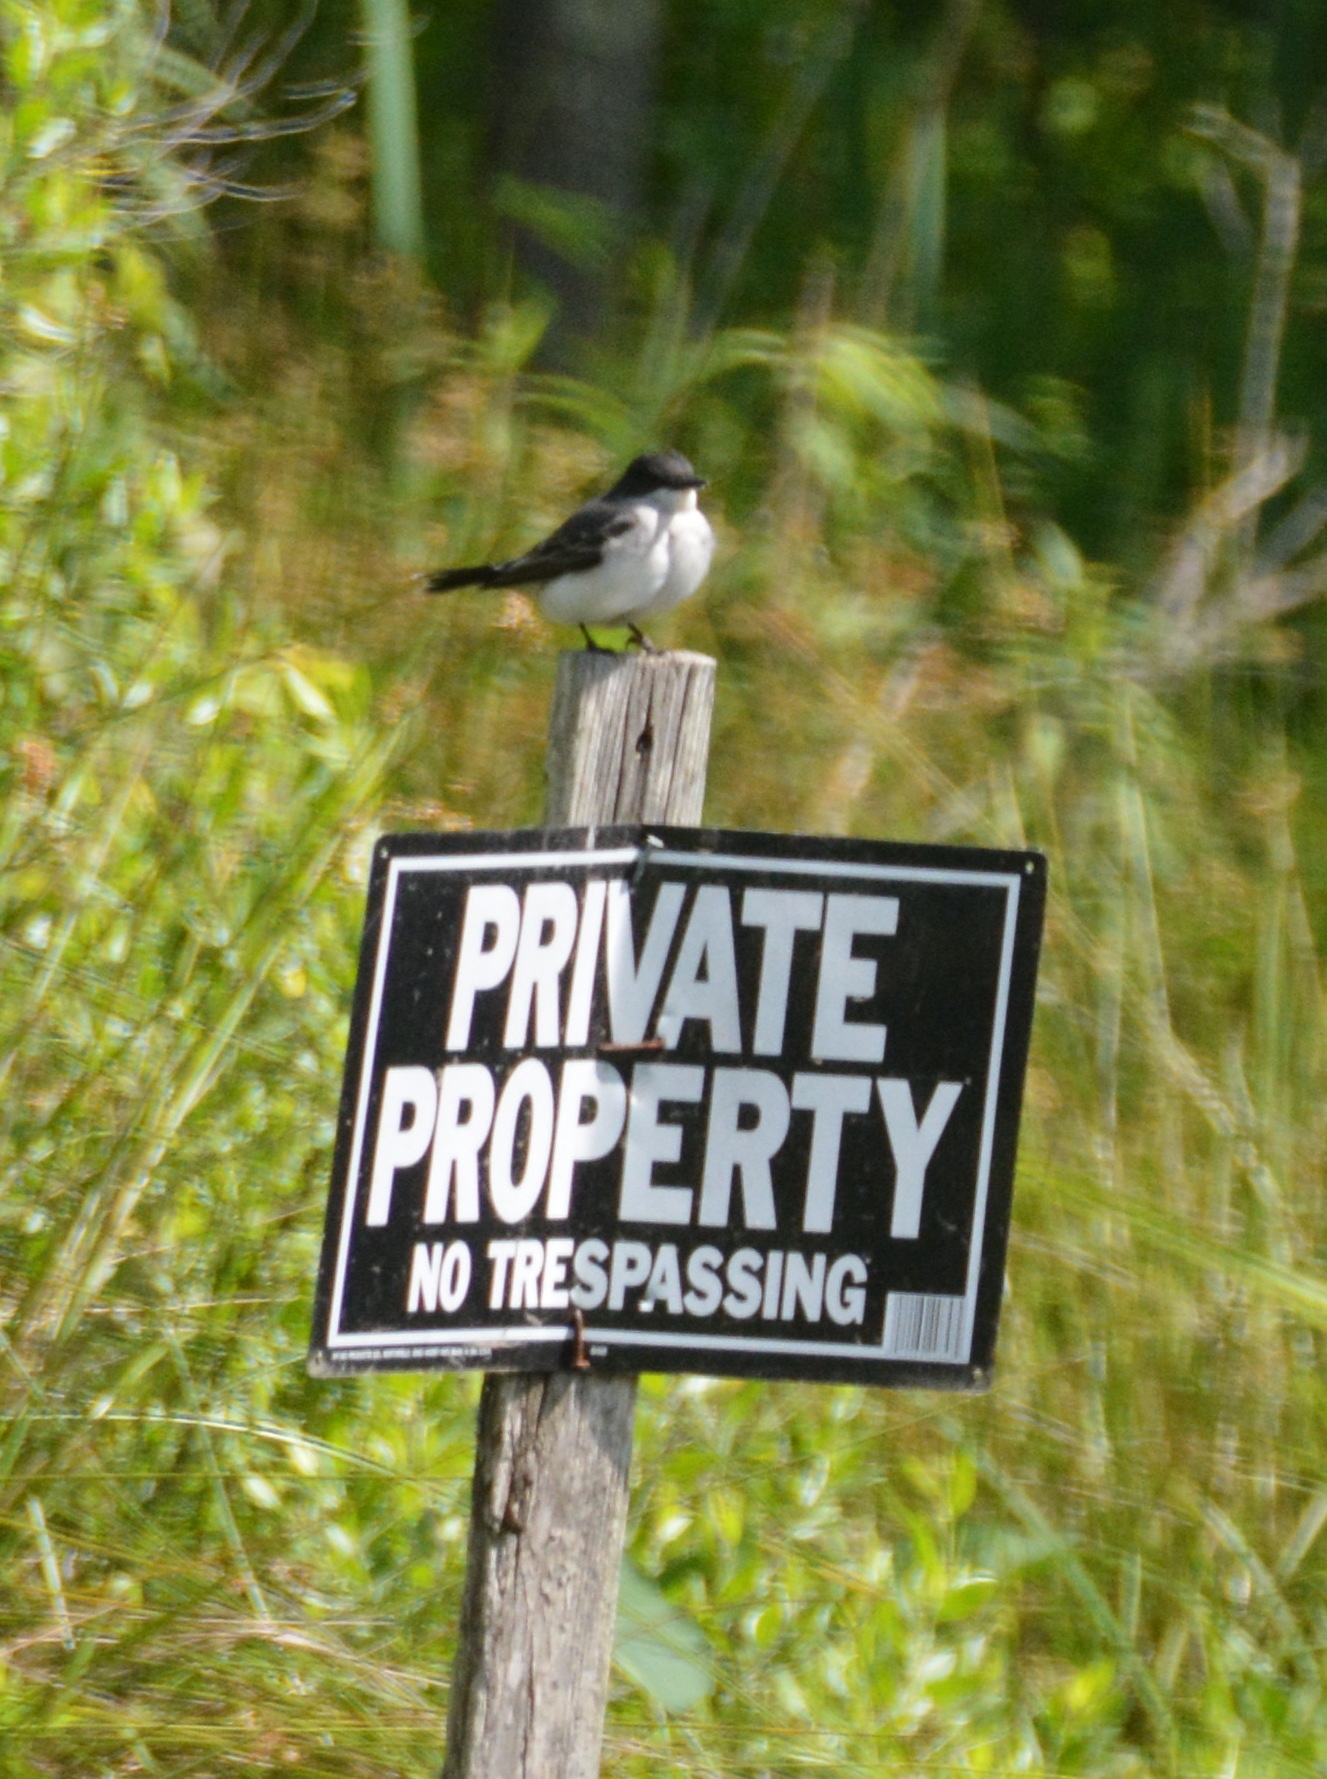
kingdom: Animalia
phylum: Chordata
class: Aves
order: Passeriformes
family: Tyrannidae
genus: Tyrannus
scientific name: Tyrannus tyrannus
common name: Eastern kingbird
